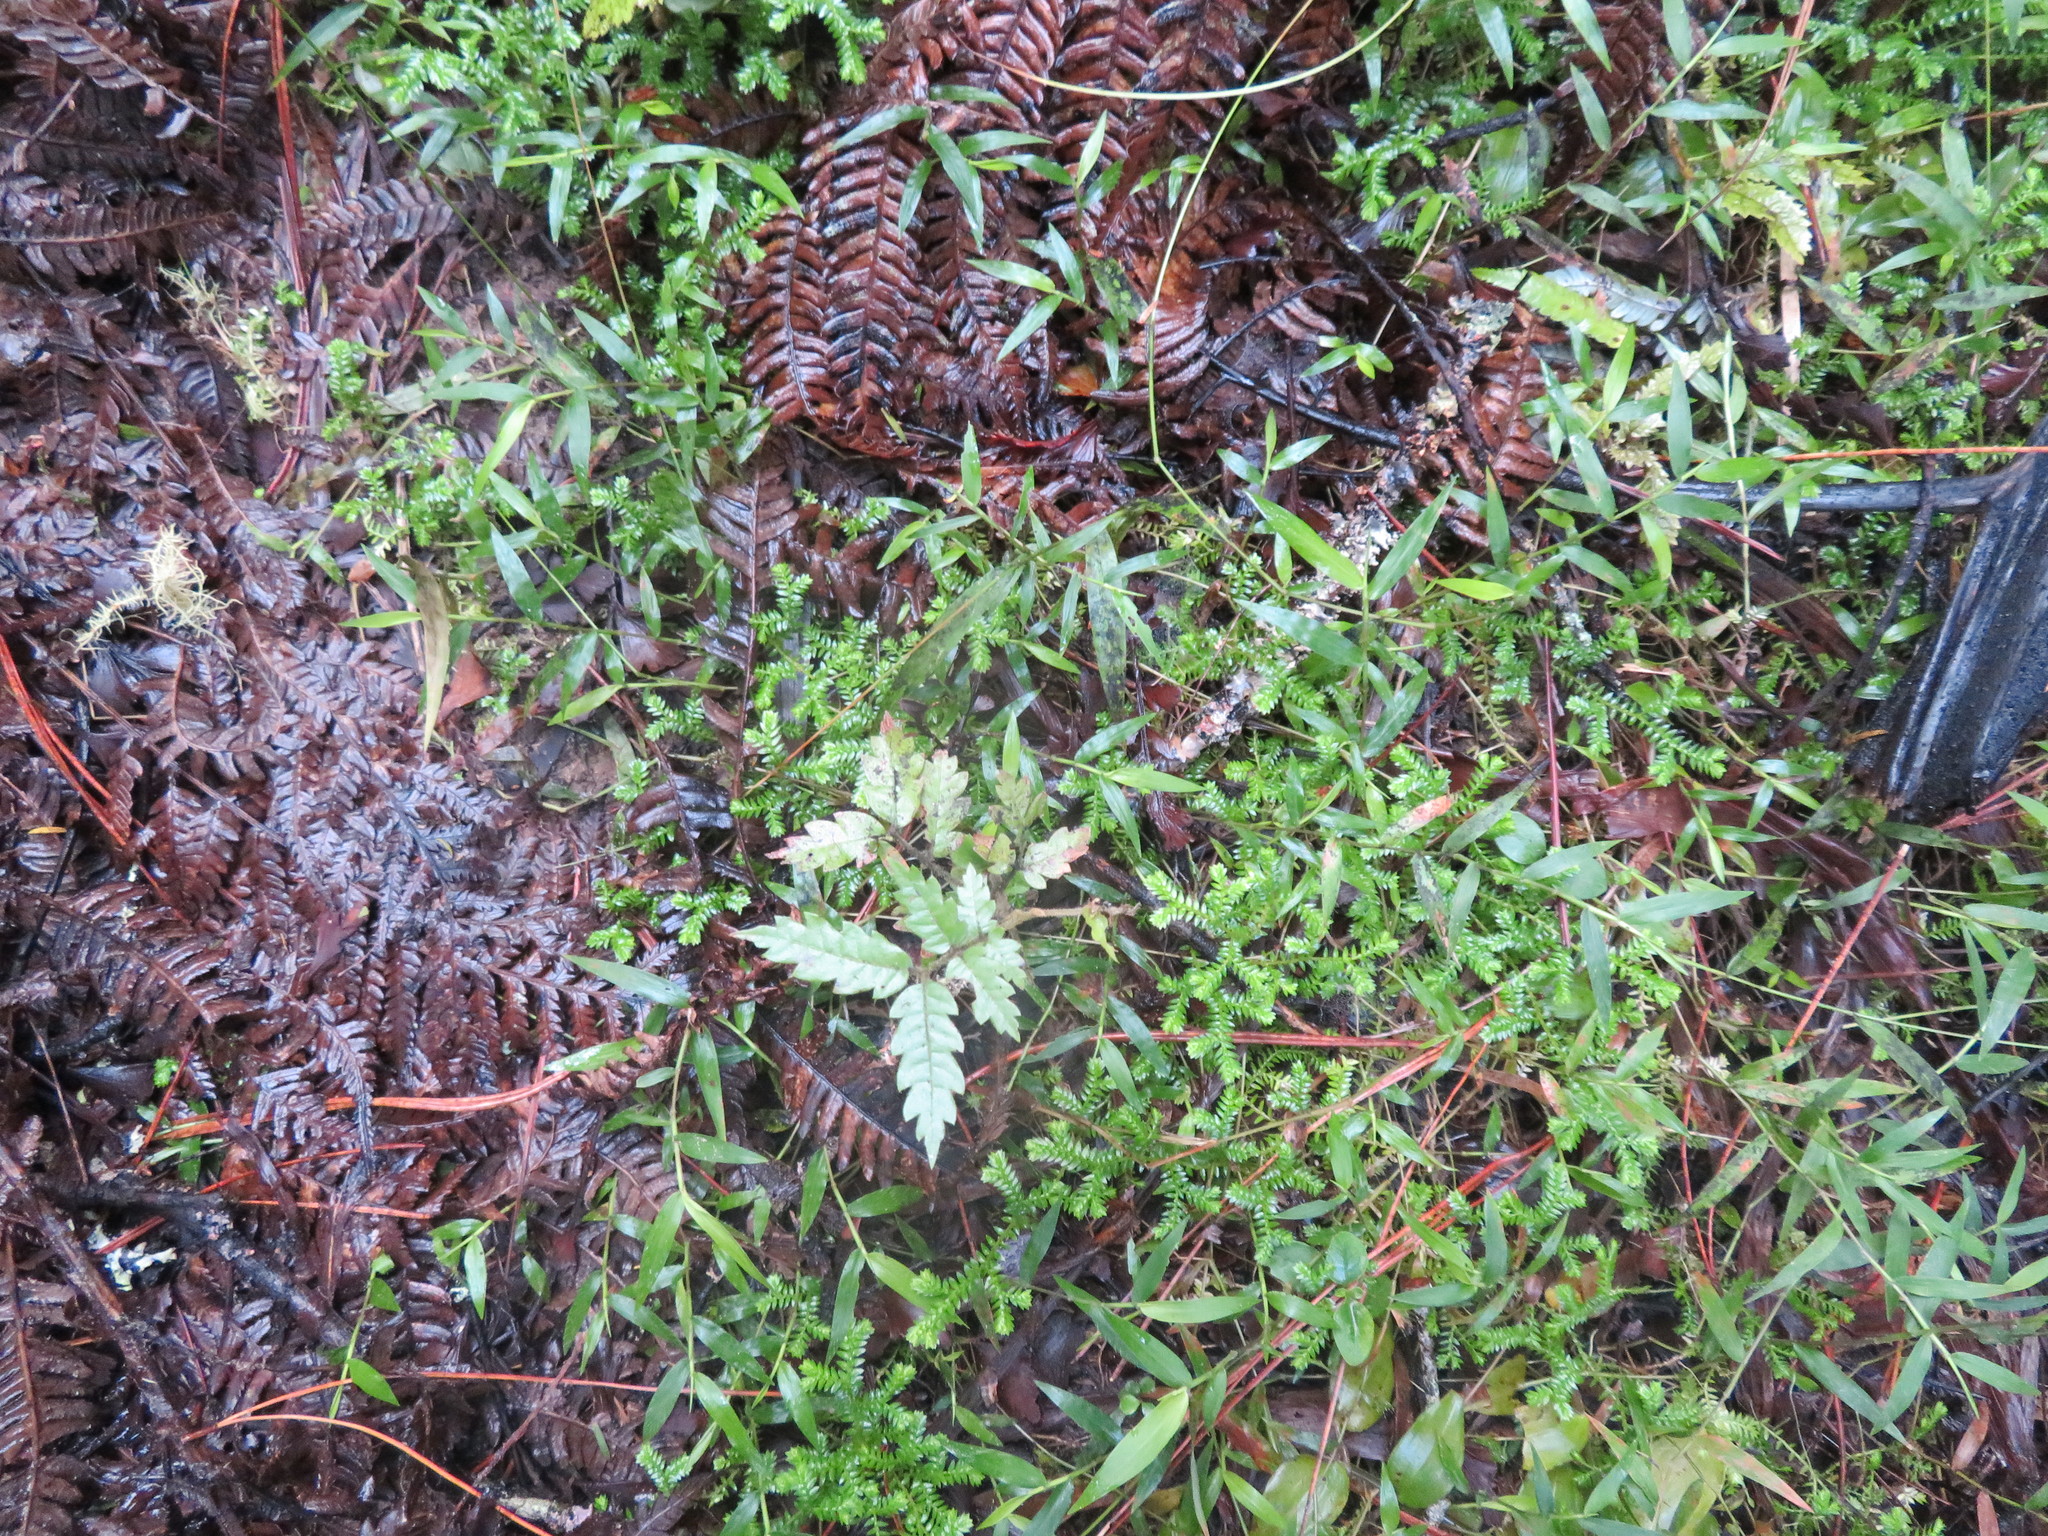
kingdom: Plantae
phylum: Tracheophyta
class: Magnoliopsida
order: Sapindales
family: Sapindaceae
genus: Alectryon
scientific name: Alectryon excelsus
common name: Three kings titoki
